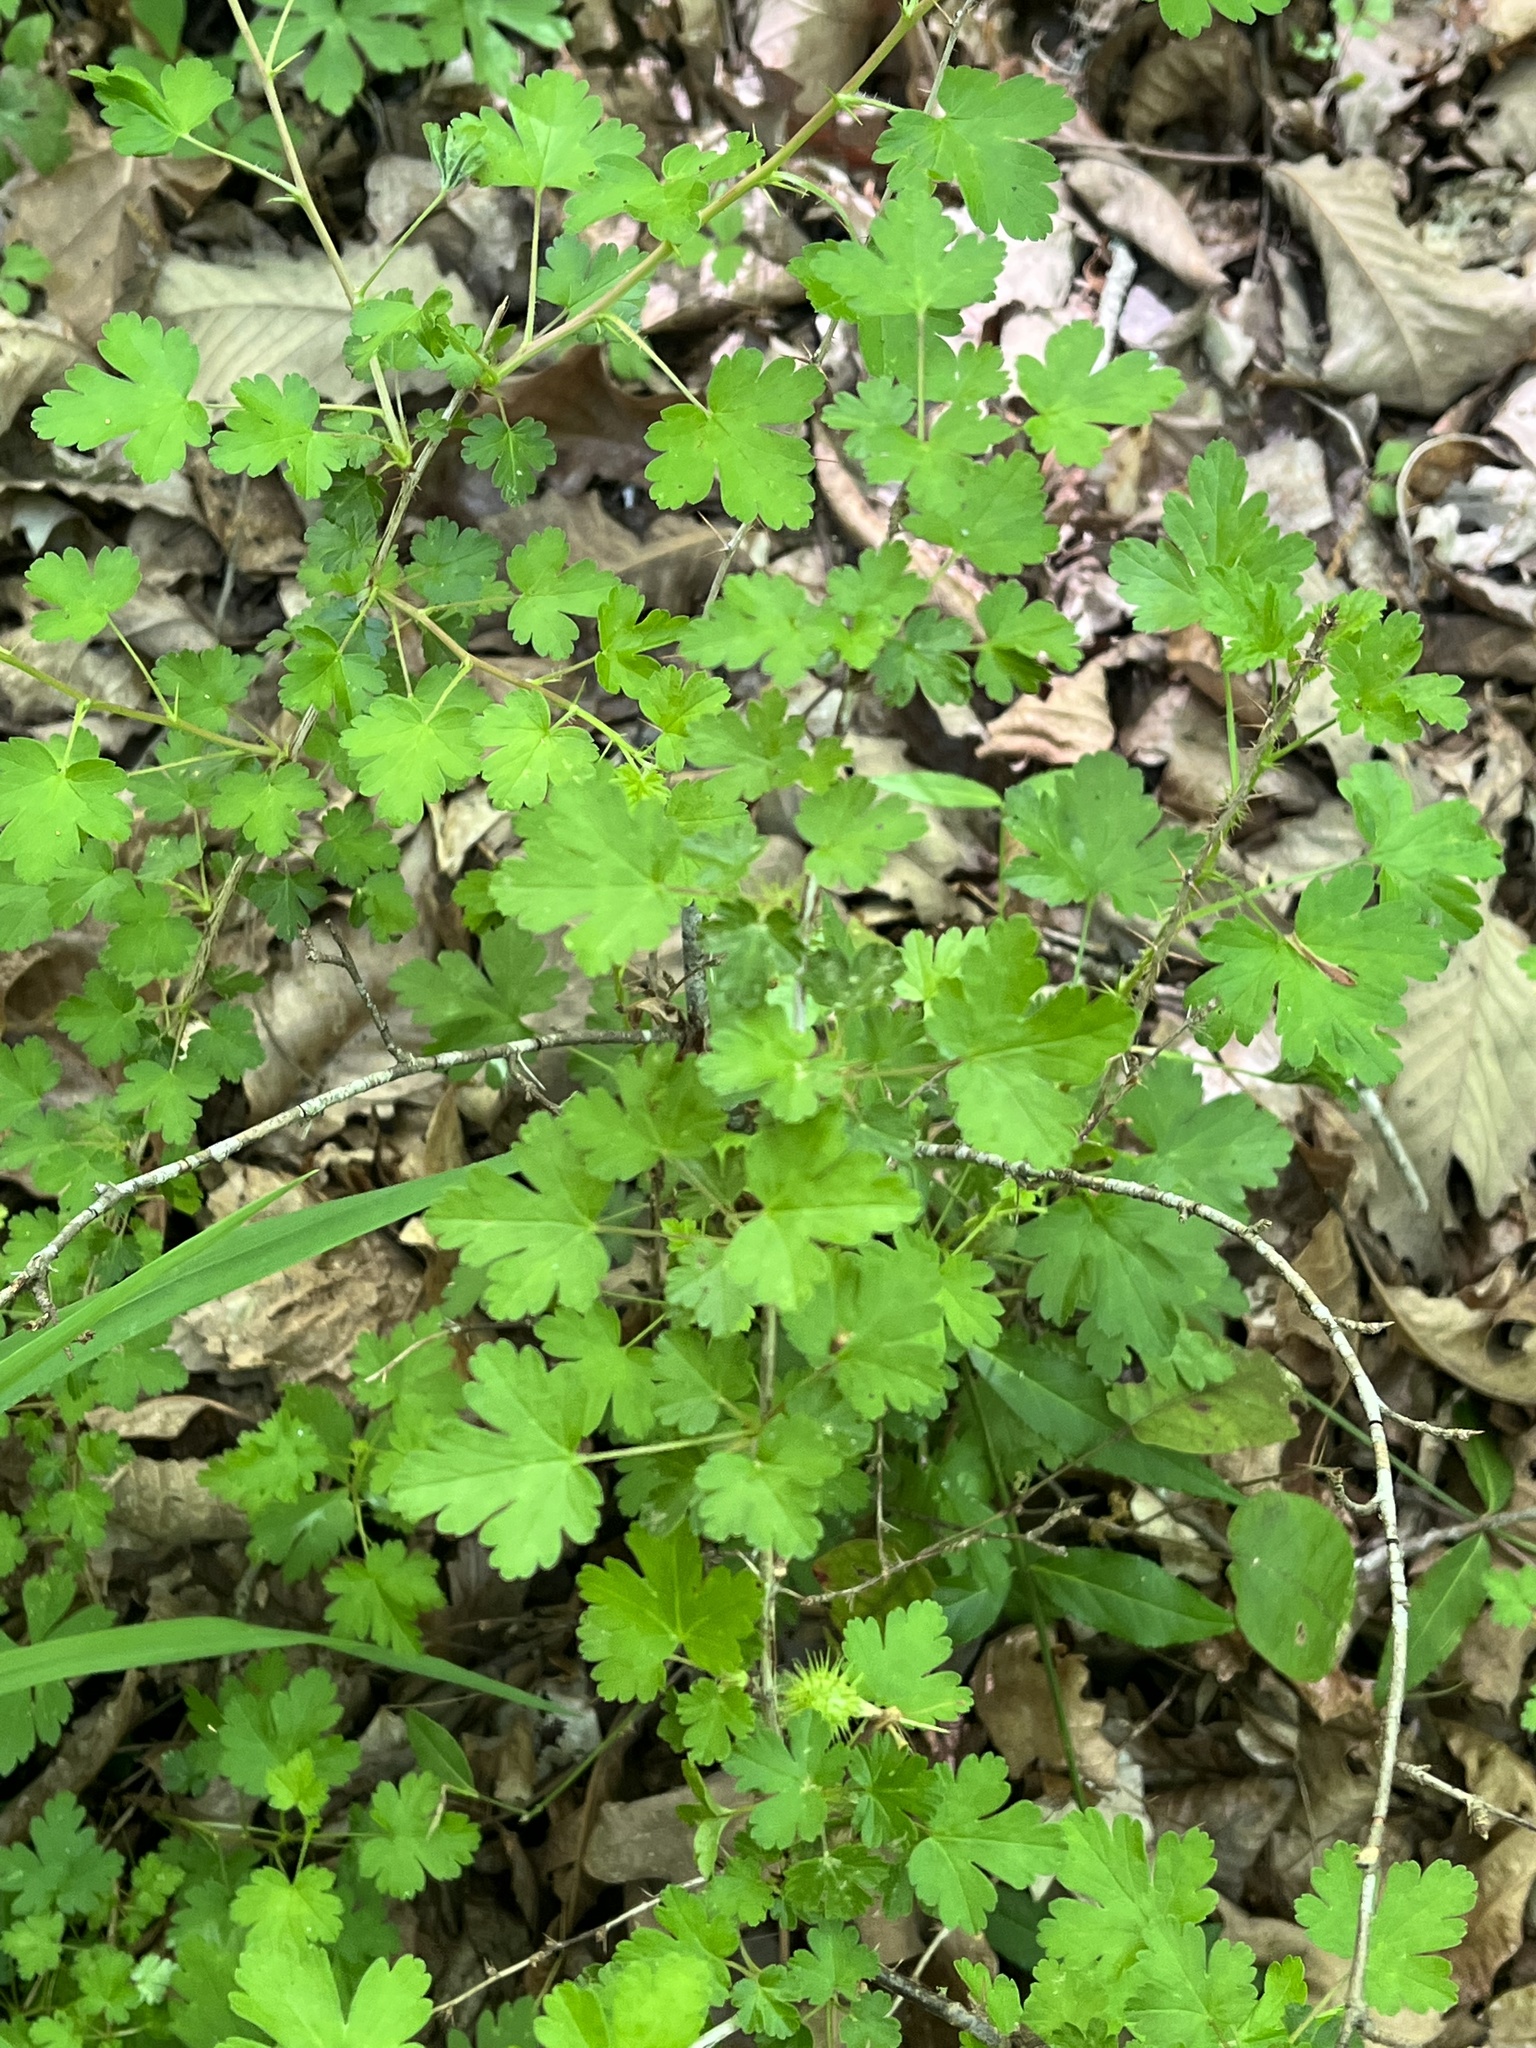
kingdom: Plantae
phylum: Tracheophyta
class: Magnoliopsida
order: Saxifragales
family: Grossulariaceae
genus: Ribes
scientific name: Ribes echinellum
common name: Miccosukee gooseberry
